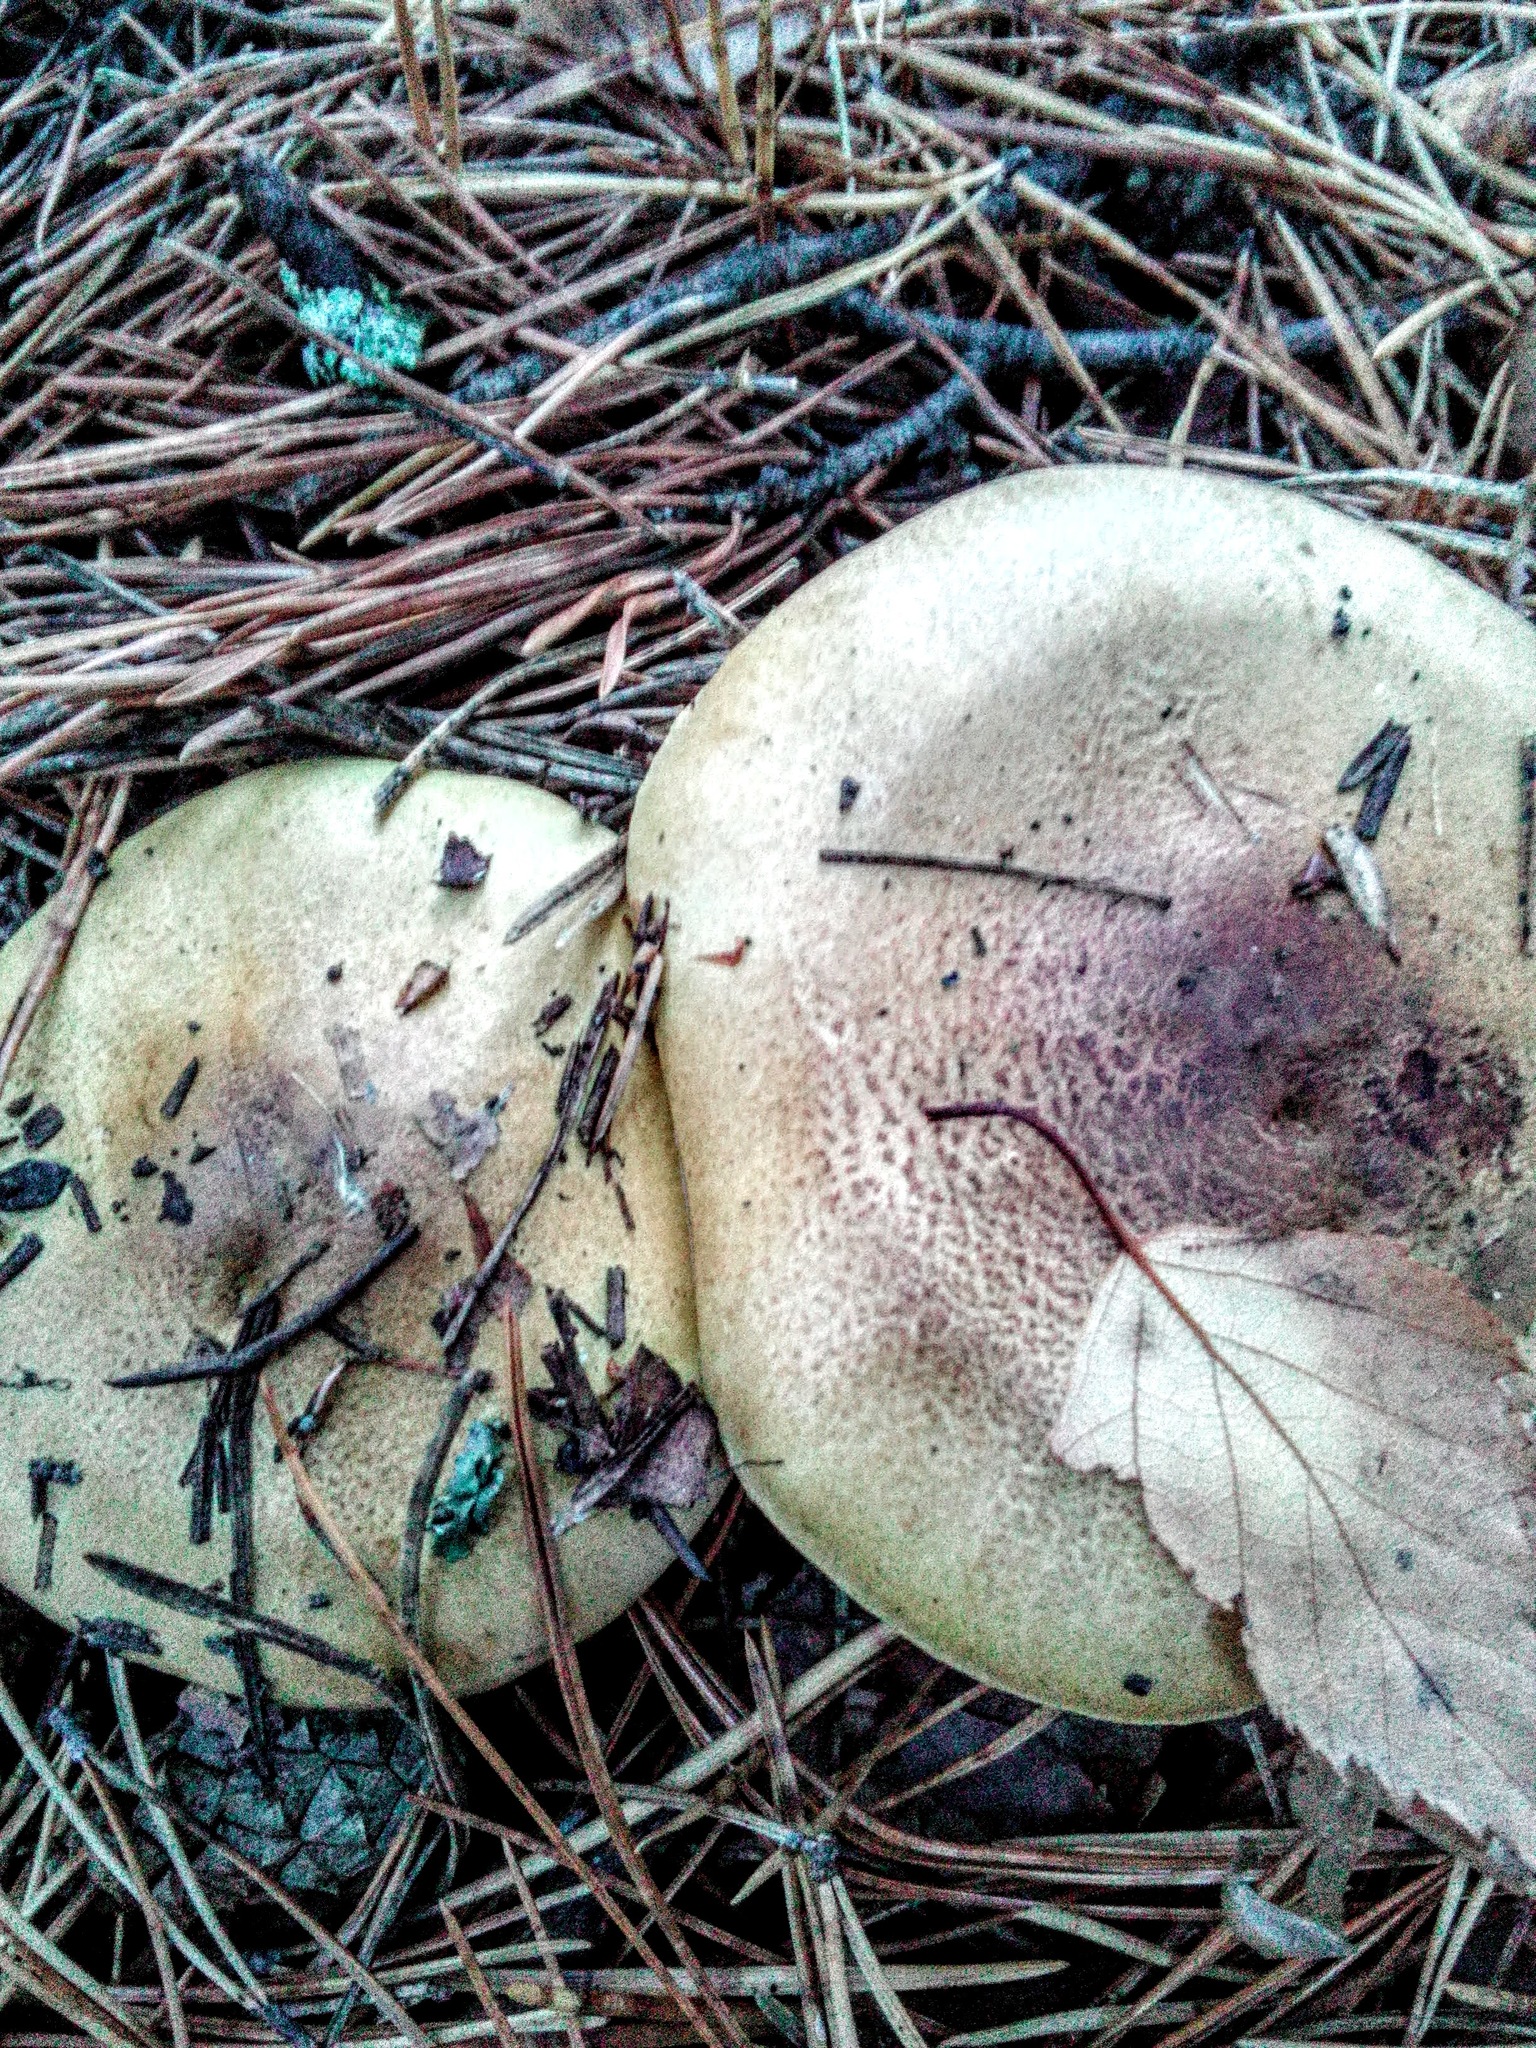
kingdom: Fungi
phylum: Basidiomycota
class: Agaricomycetes
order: Agaricales
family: Tricholomataceae
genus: Tricholoma
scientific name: Tricholoma equestre
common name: Yellow knight
